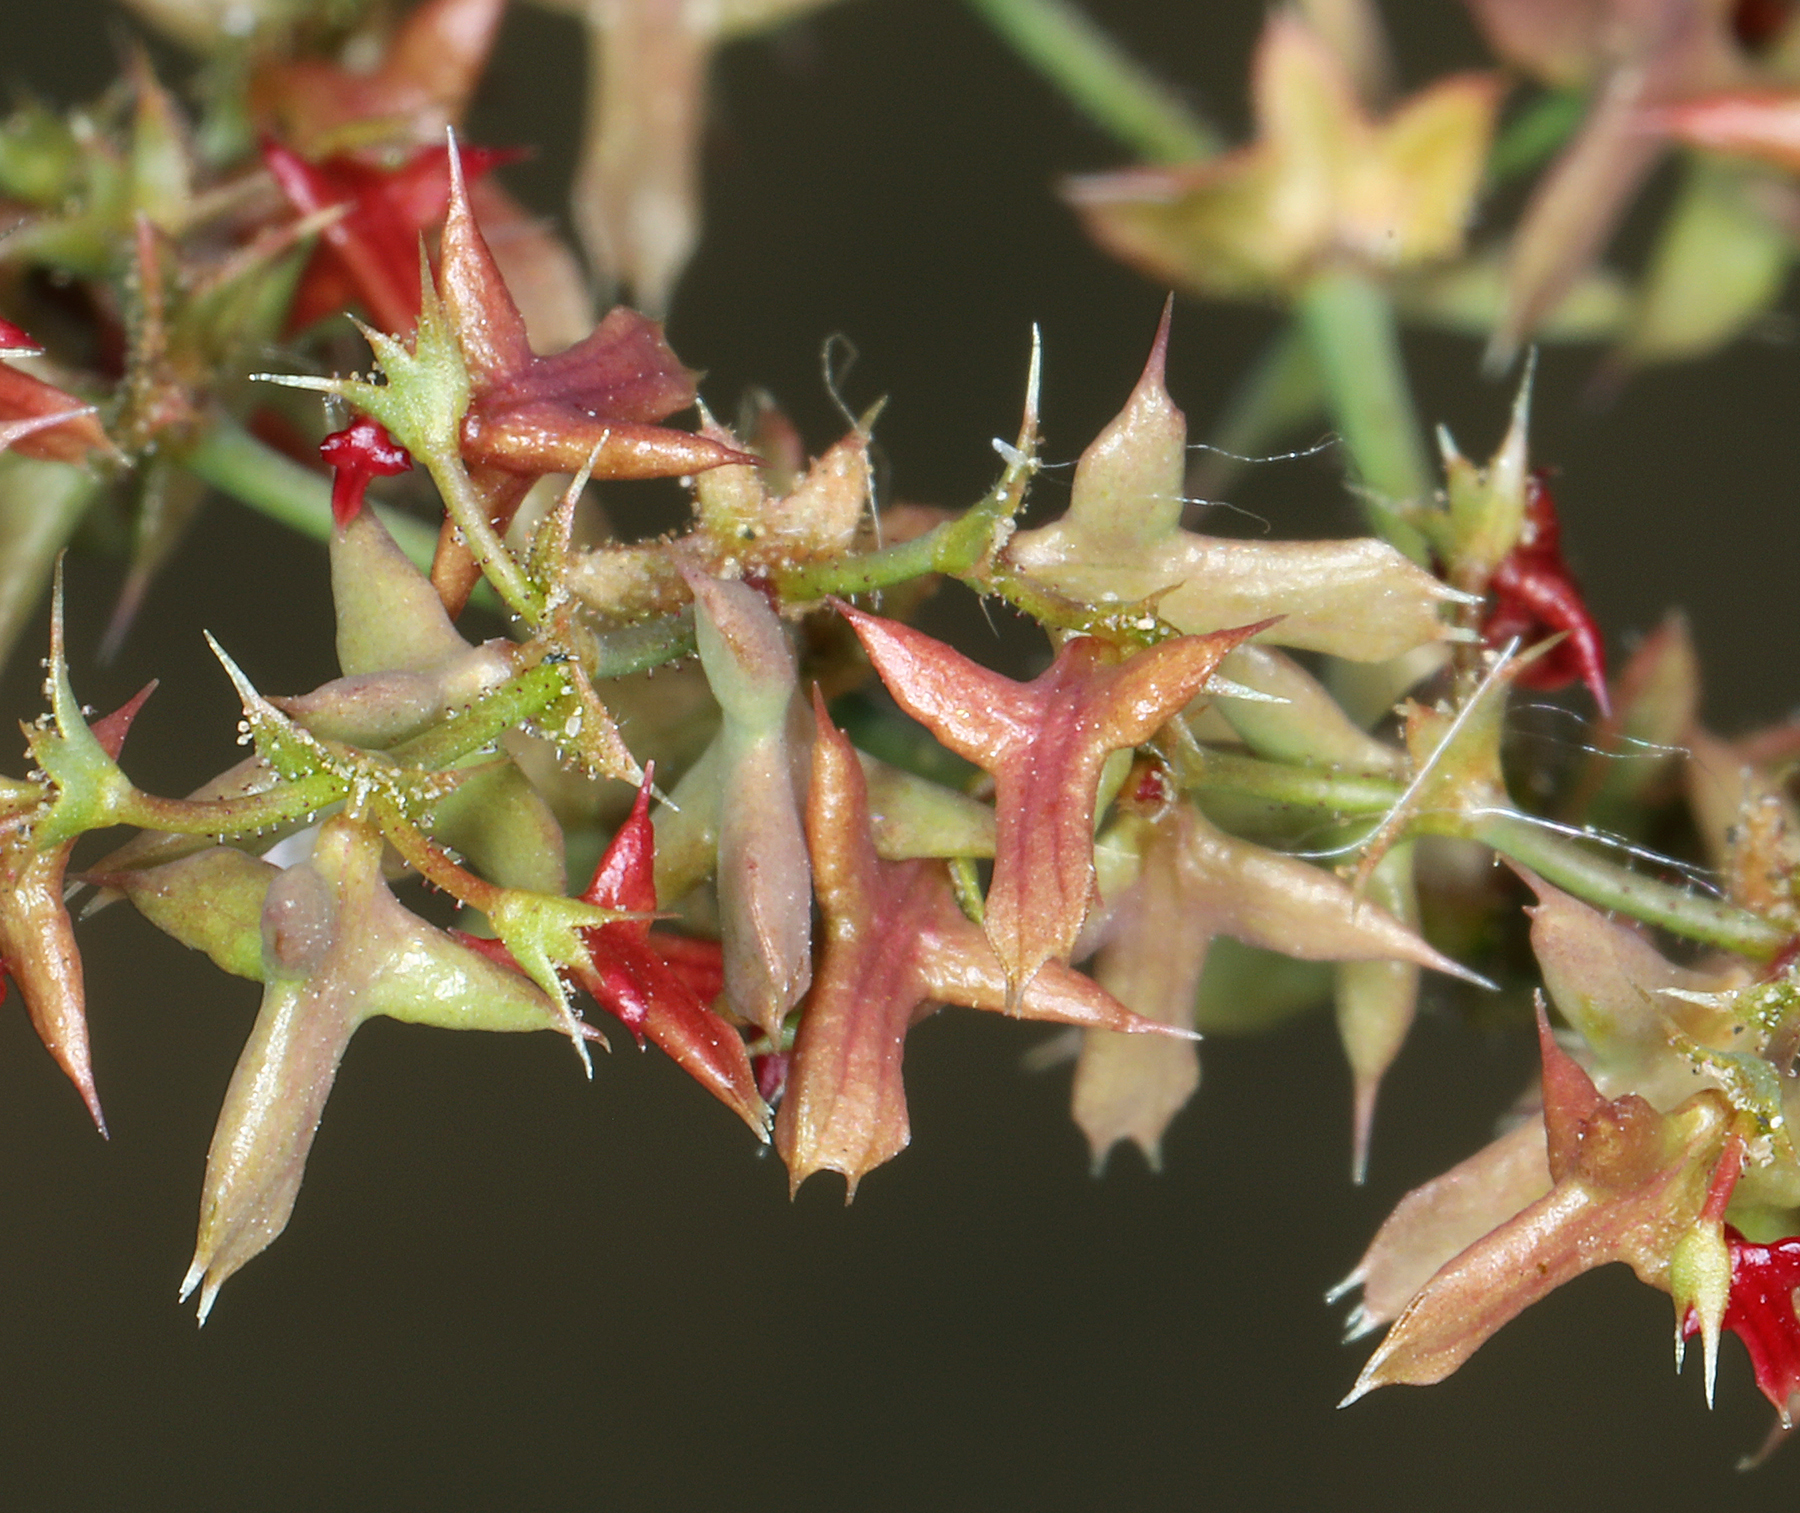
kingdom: Plantae
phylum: Tracheophyta
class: Magnoliopsida
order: Caryophyllales
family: Polygonaceae
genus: Centrostegia
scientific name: Centrostegia thurberi
